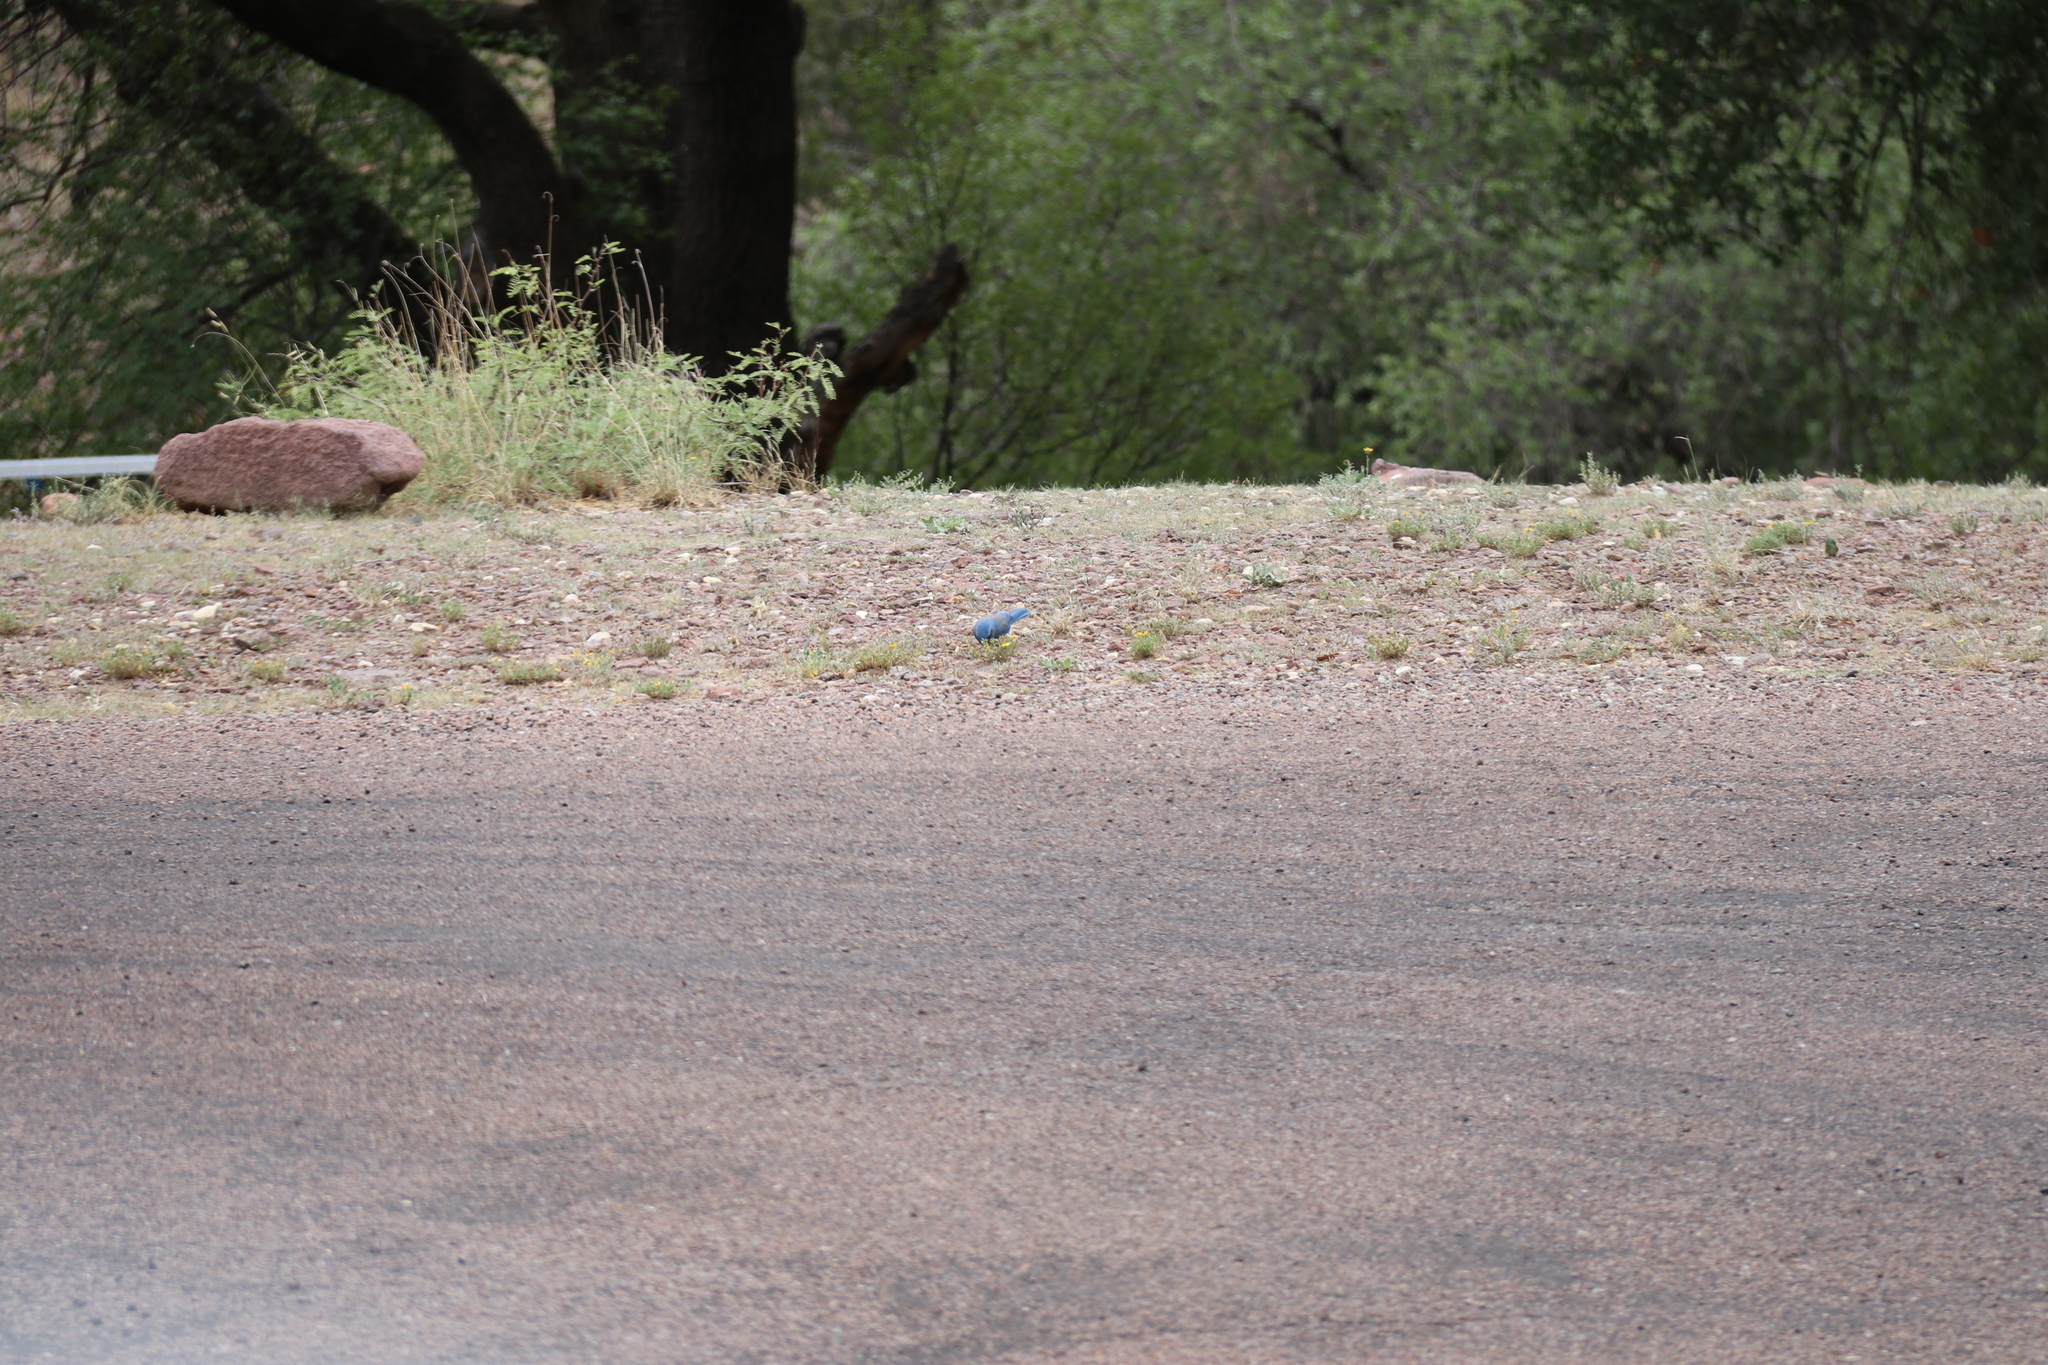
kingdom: Animalia
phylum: Chordata
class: Aves
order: Passeriformes
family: Corvidae
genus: Aphelocoma
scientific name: Aphelocoma woodhouseii
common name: Woodhouse's scrub-jay
